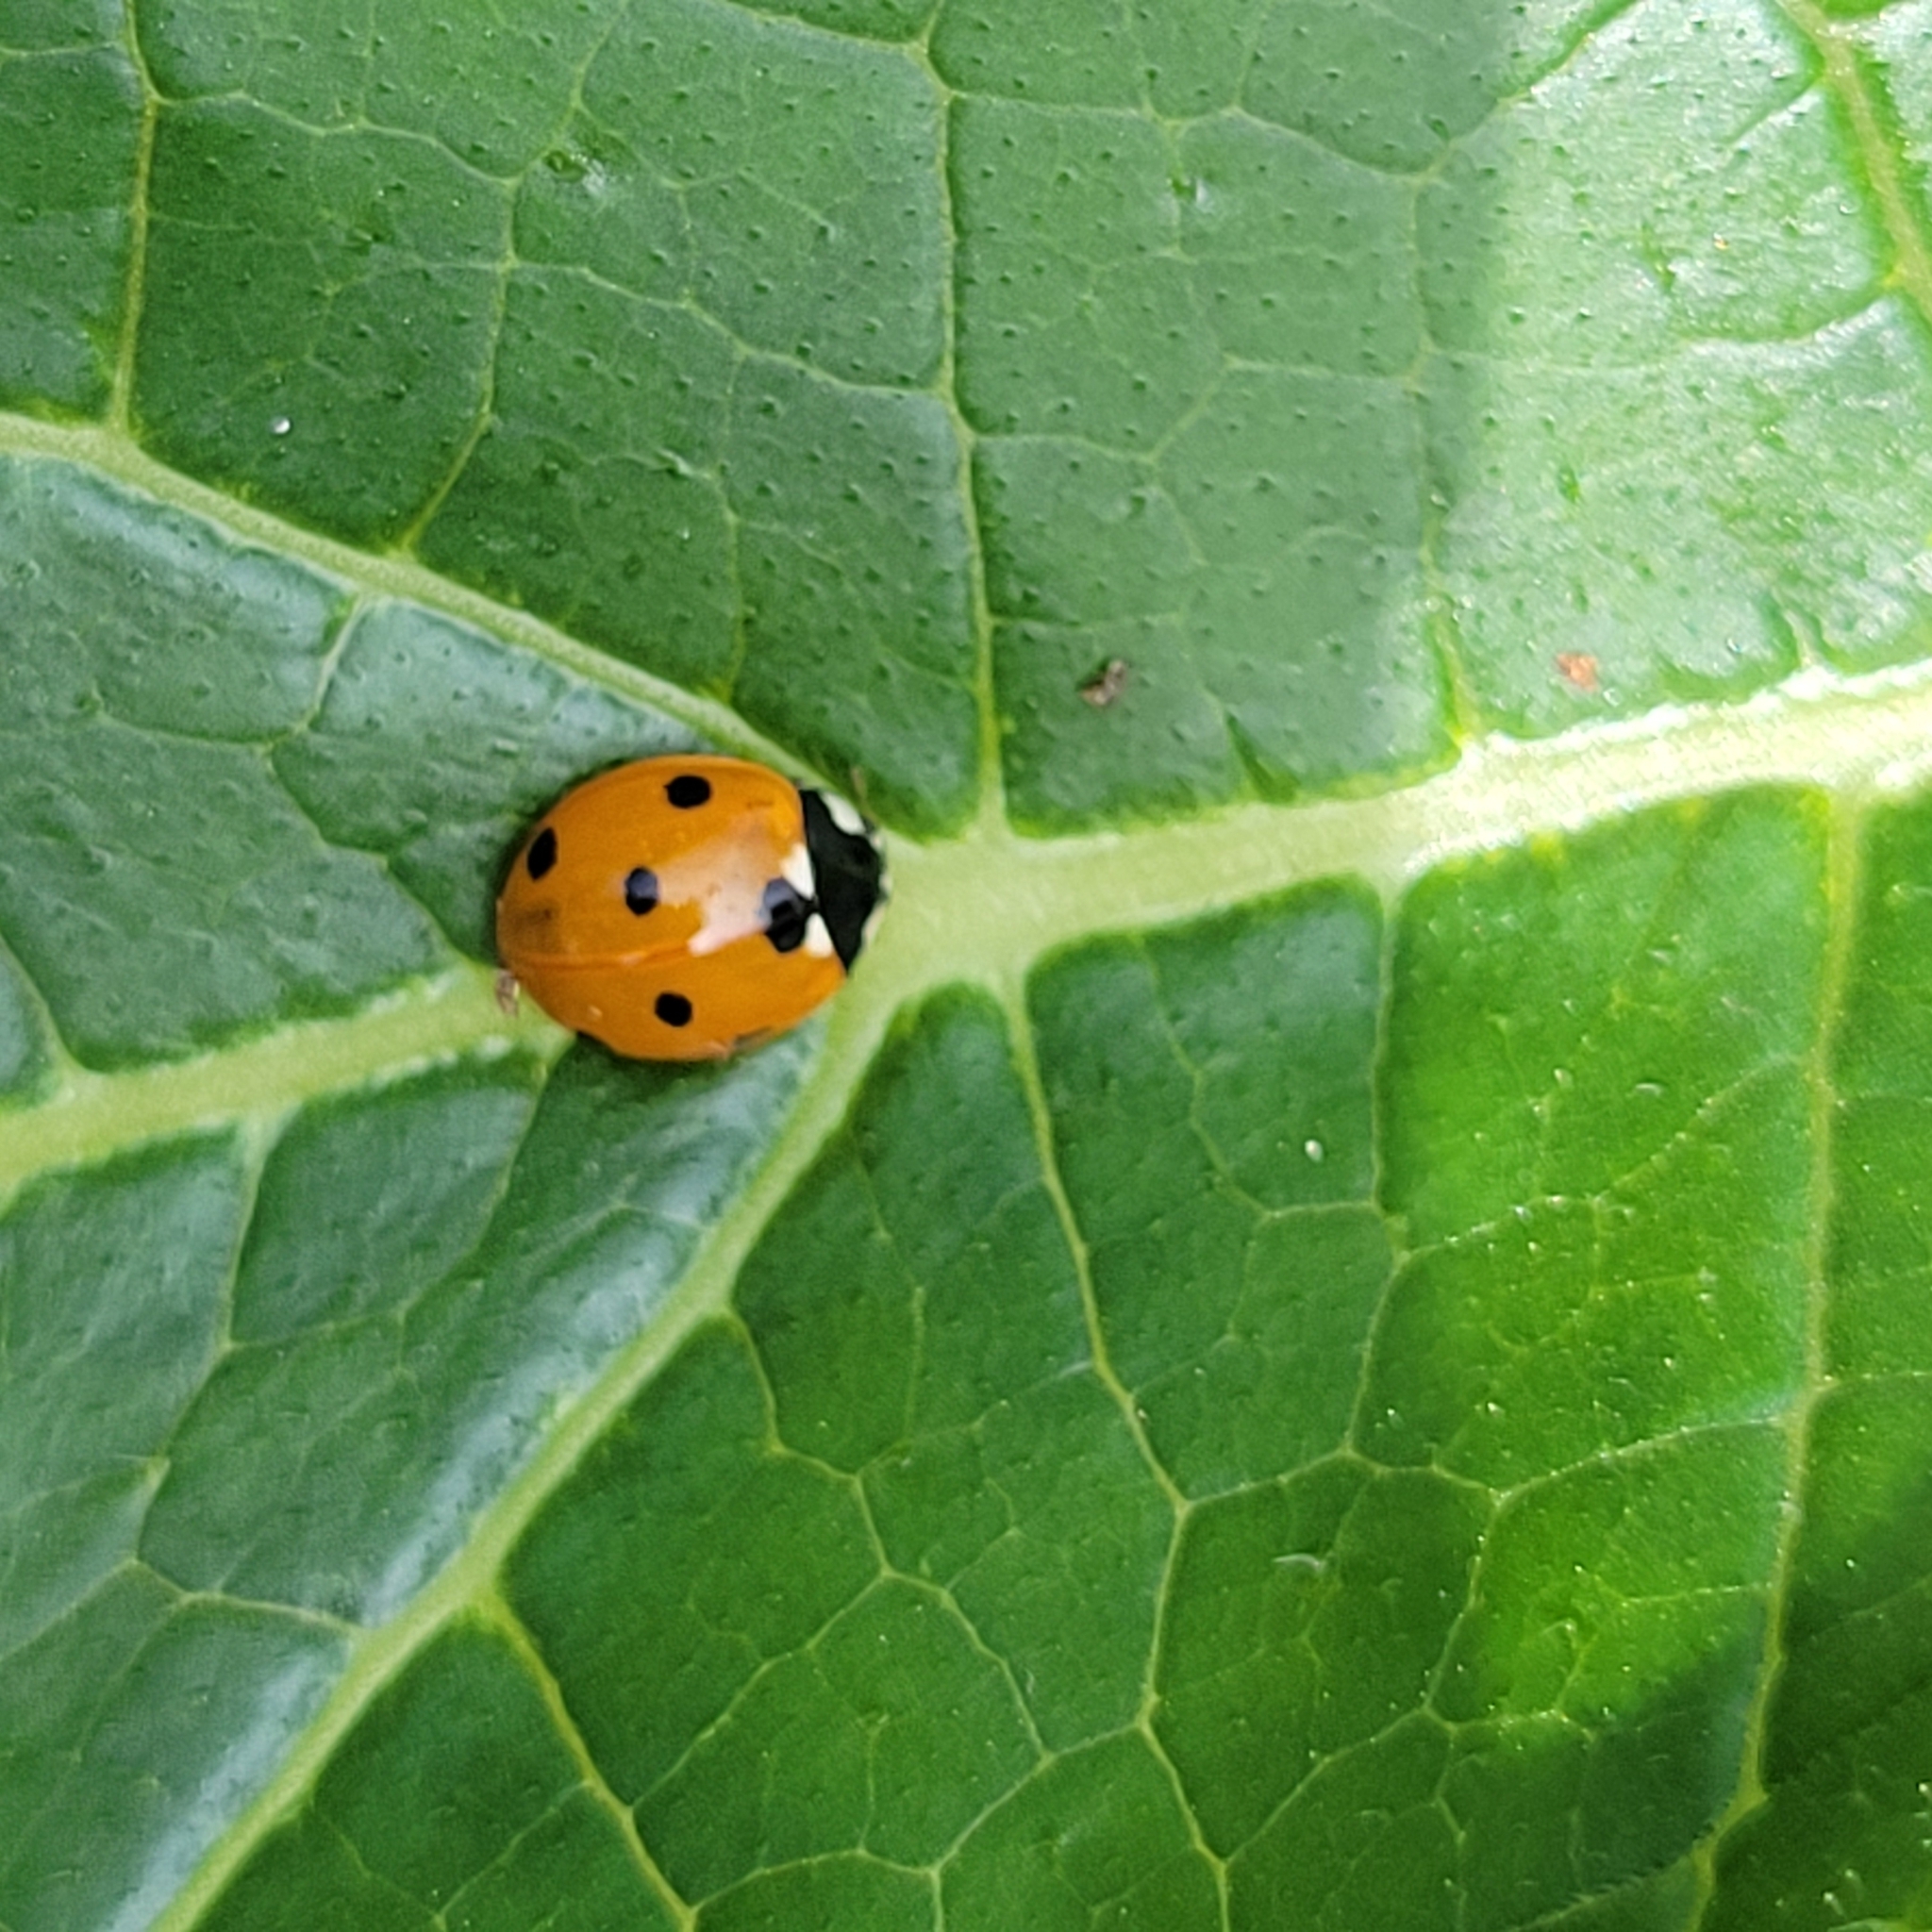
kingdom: Animalia
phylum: Arthropoda
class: Insecta
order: Coleoptera
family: Coccinellidae
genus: Coccinella
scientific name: Coccinella septempunctata
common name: Sevenspotted lady beetle
